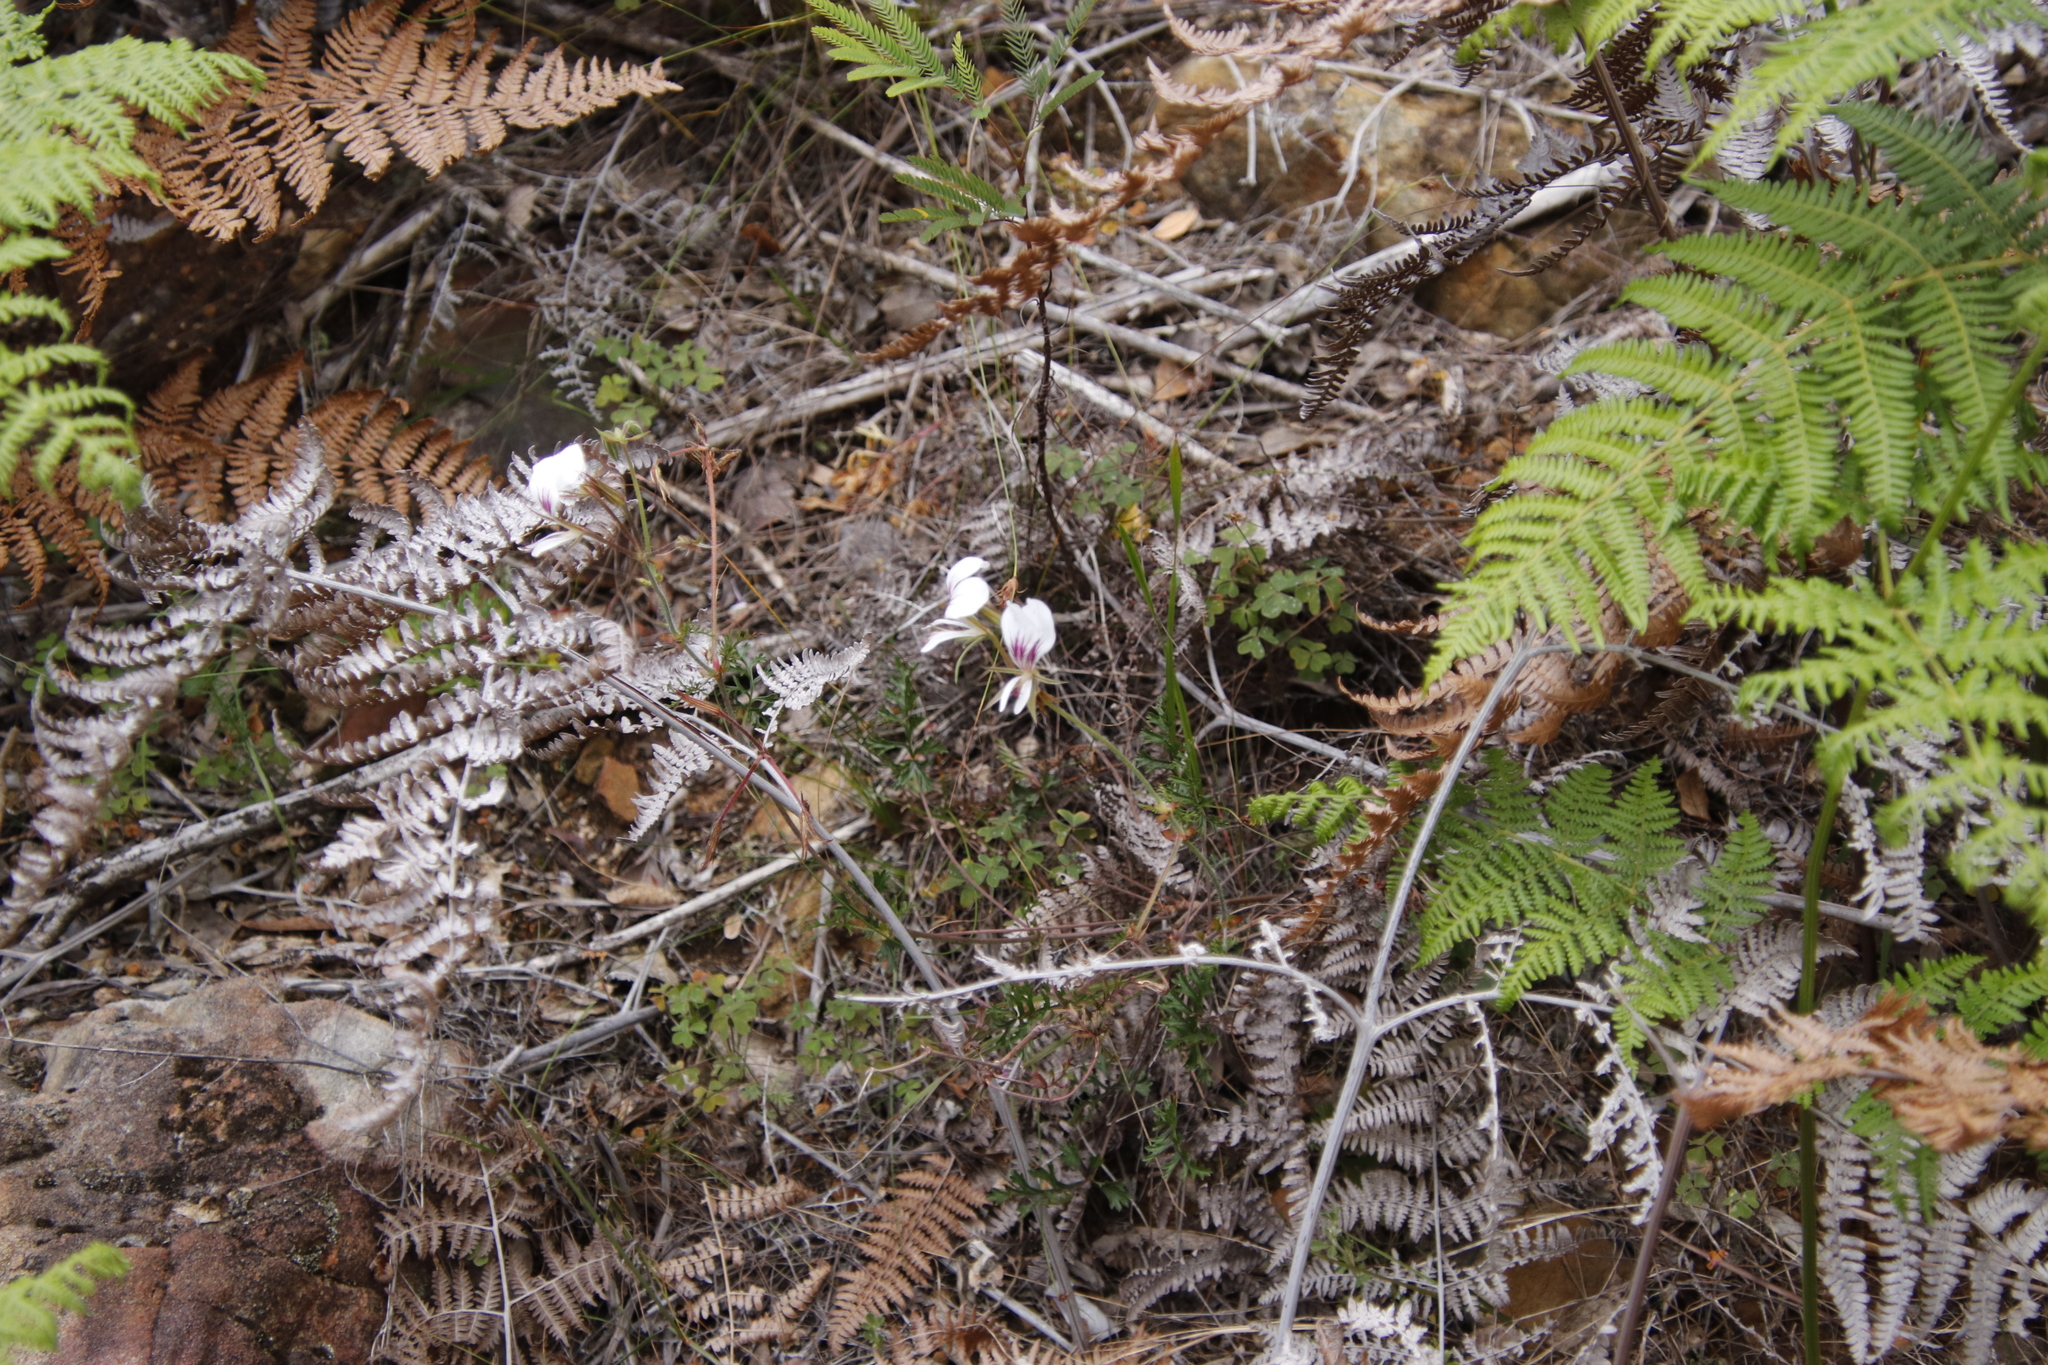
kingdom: Plantae
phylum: Tracheophyta
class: Magnoliopsida
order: Geraniales
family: Geraniaceae
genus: Pelargonium
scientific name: Pelargonium longicaule
